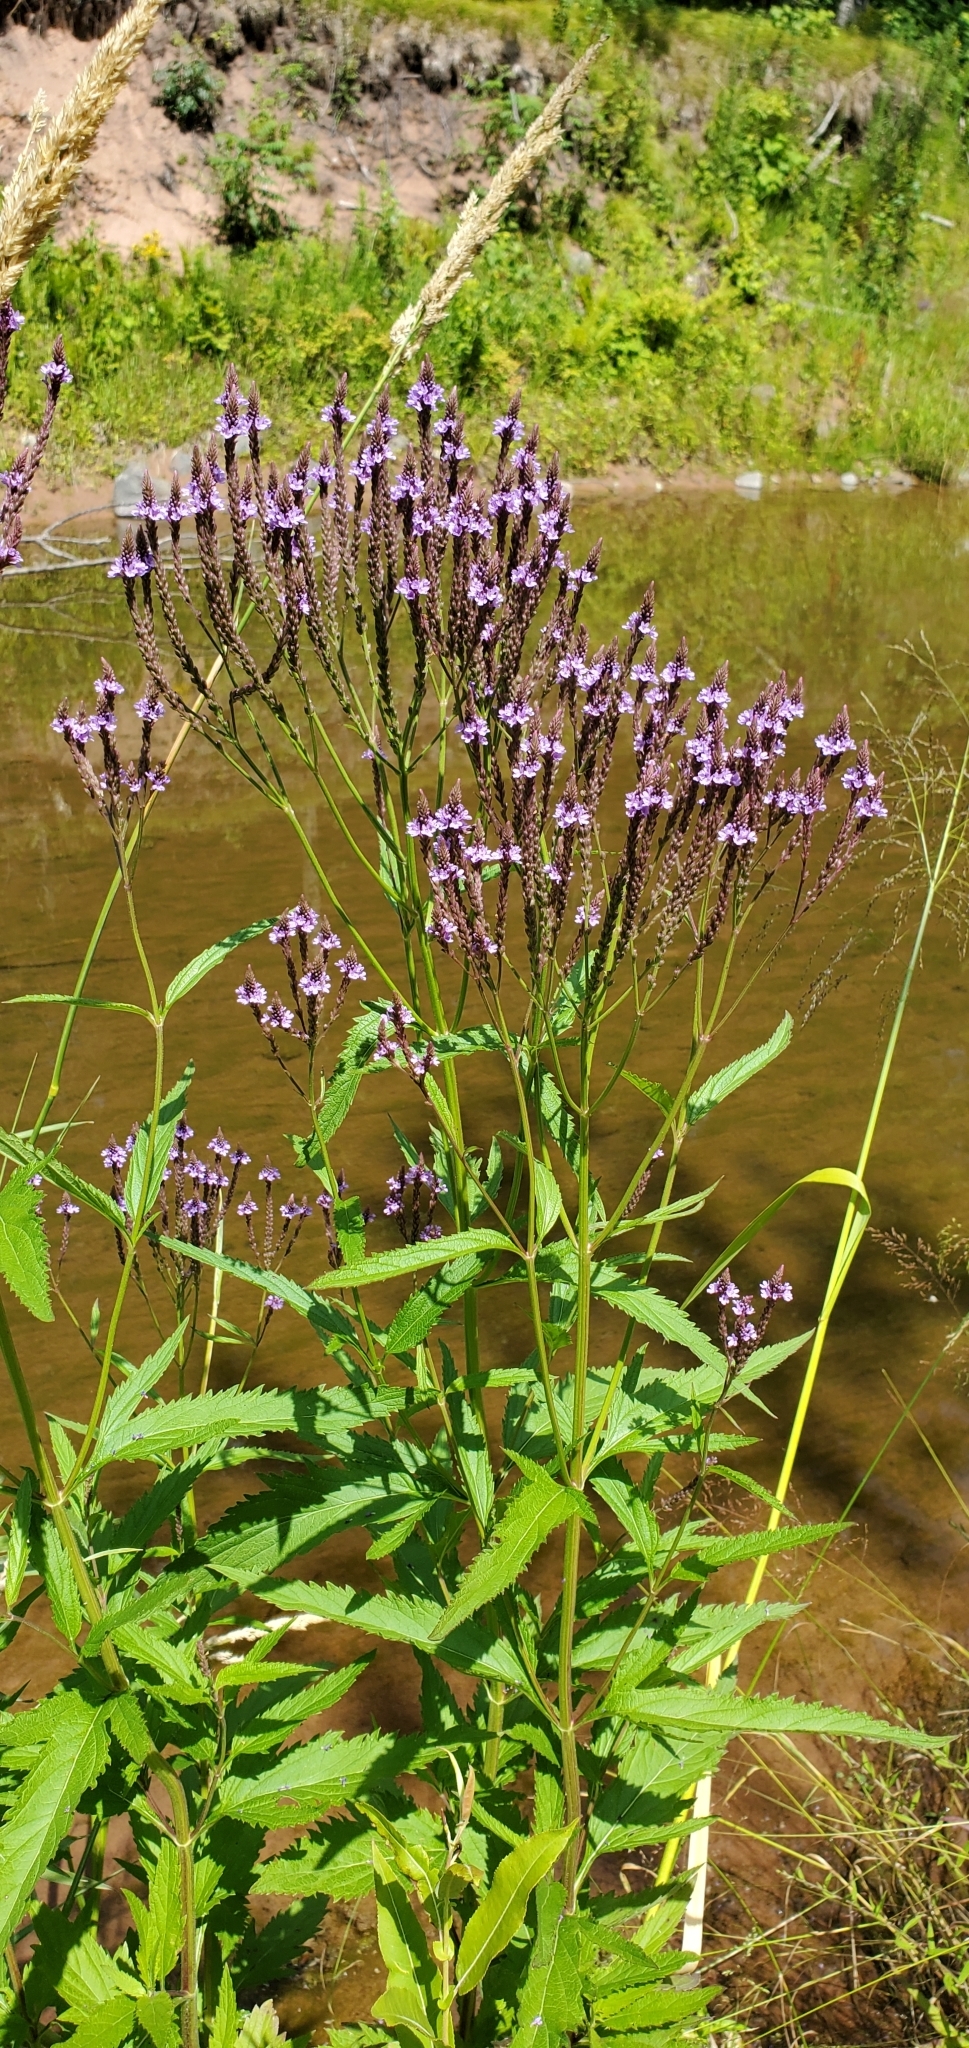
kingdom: Plantae
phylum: Tracheophyta
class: Magnoliopsida
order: Lamiales
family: Verbenaceae
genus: Verbena
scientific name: Verbena hastata
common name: American blue vervain
